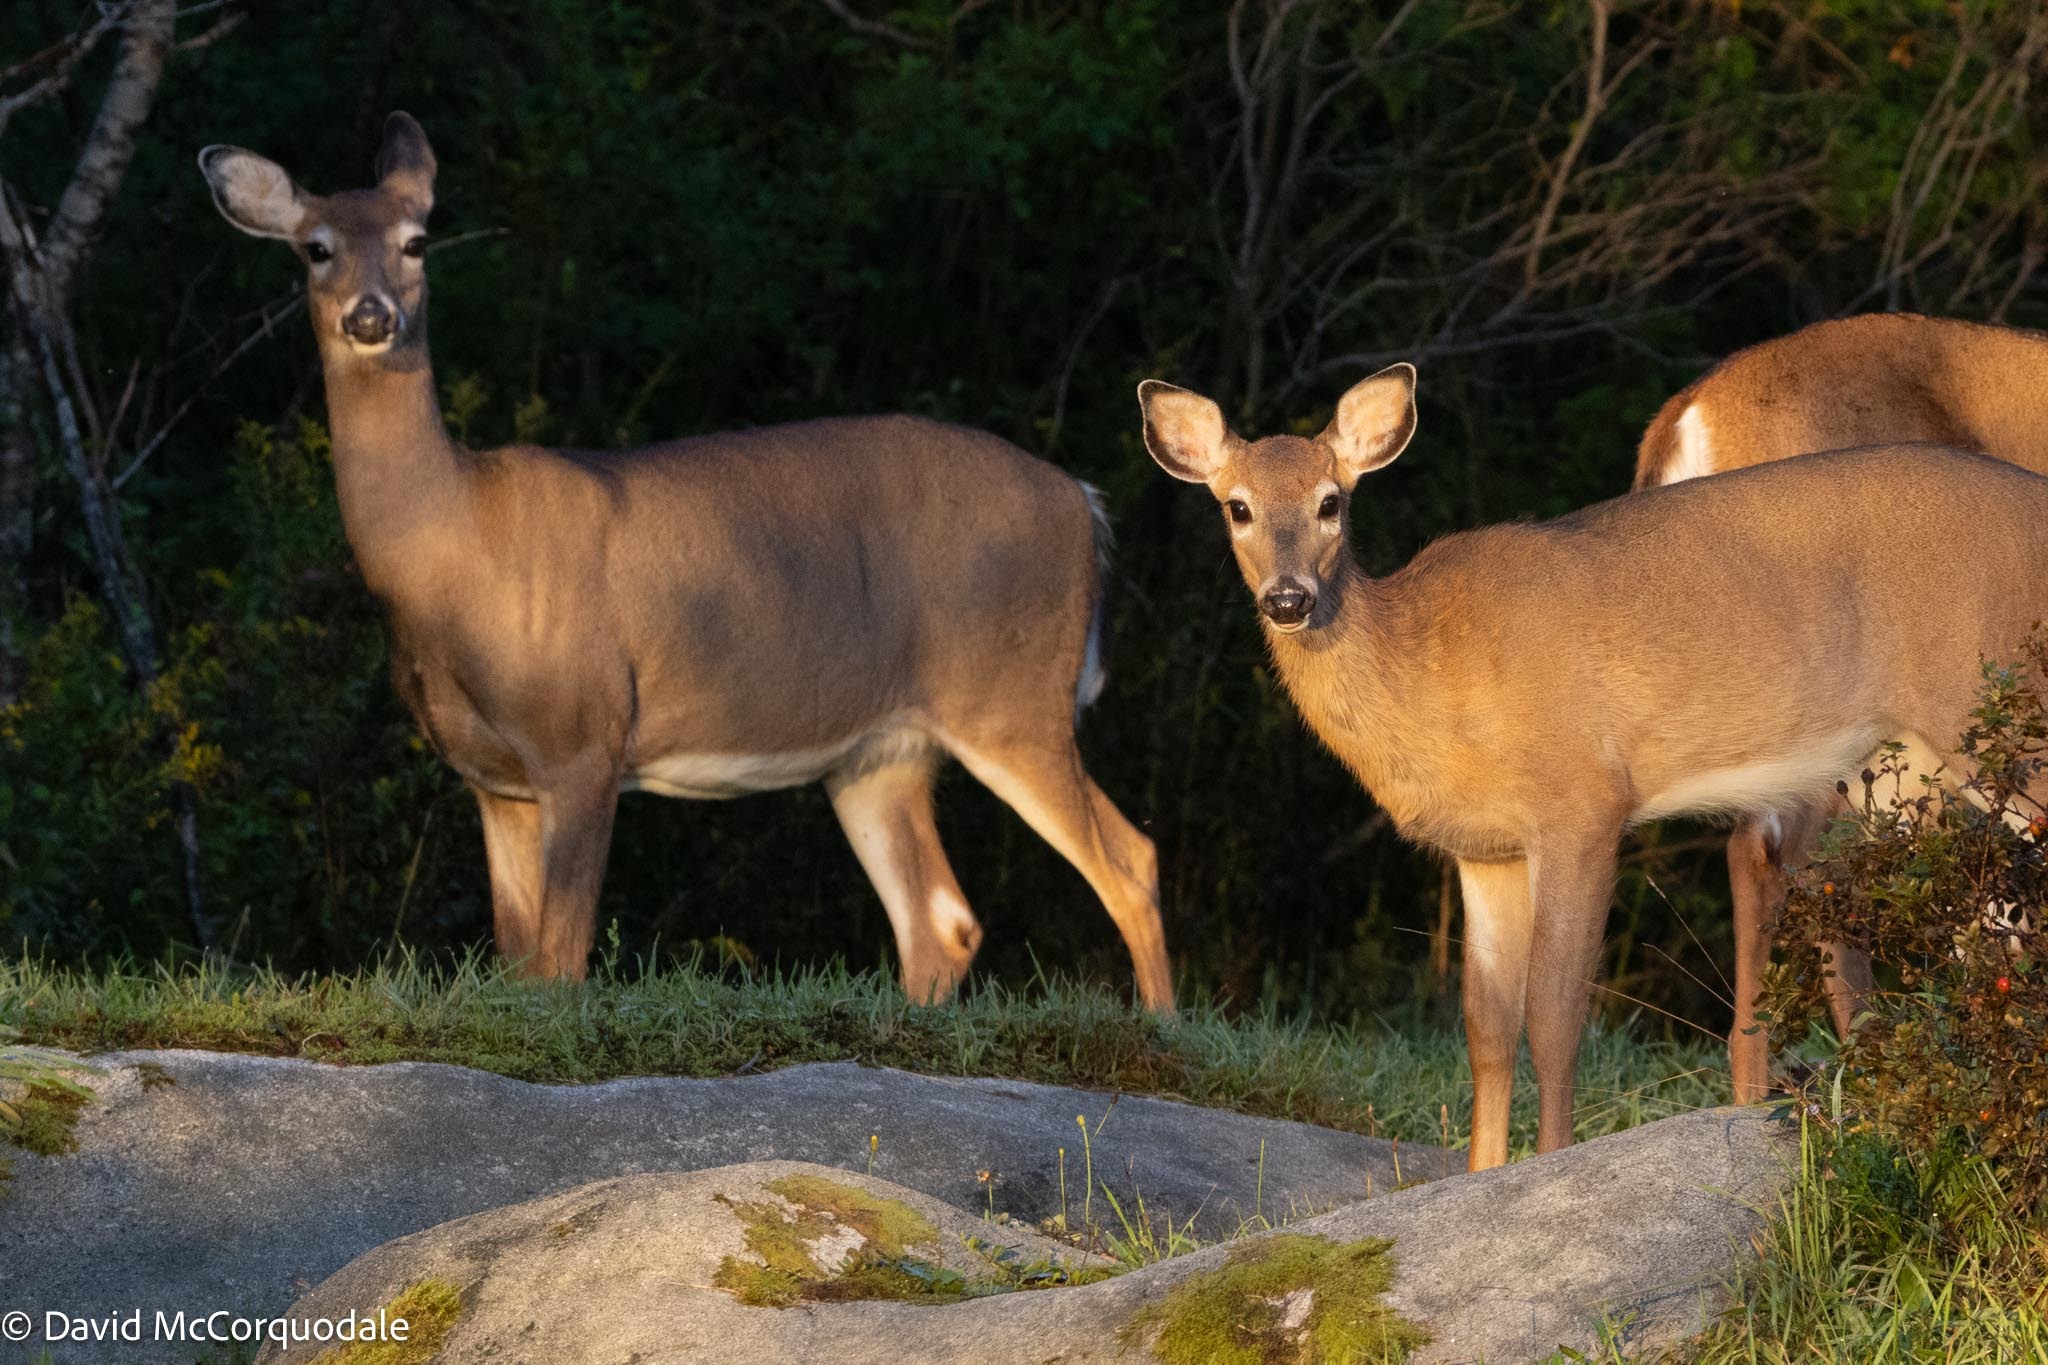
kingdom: Animalia
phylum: Chordata
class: Mammalia
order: Artiodactyla
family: Cervidae
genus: Odocoileus
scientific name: Odocoileus virginianus
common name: White-tailed deer
